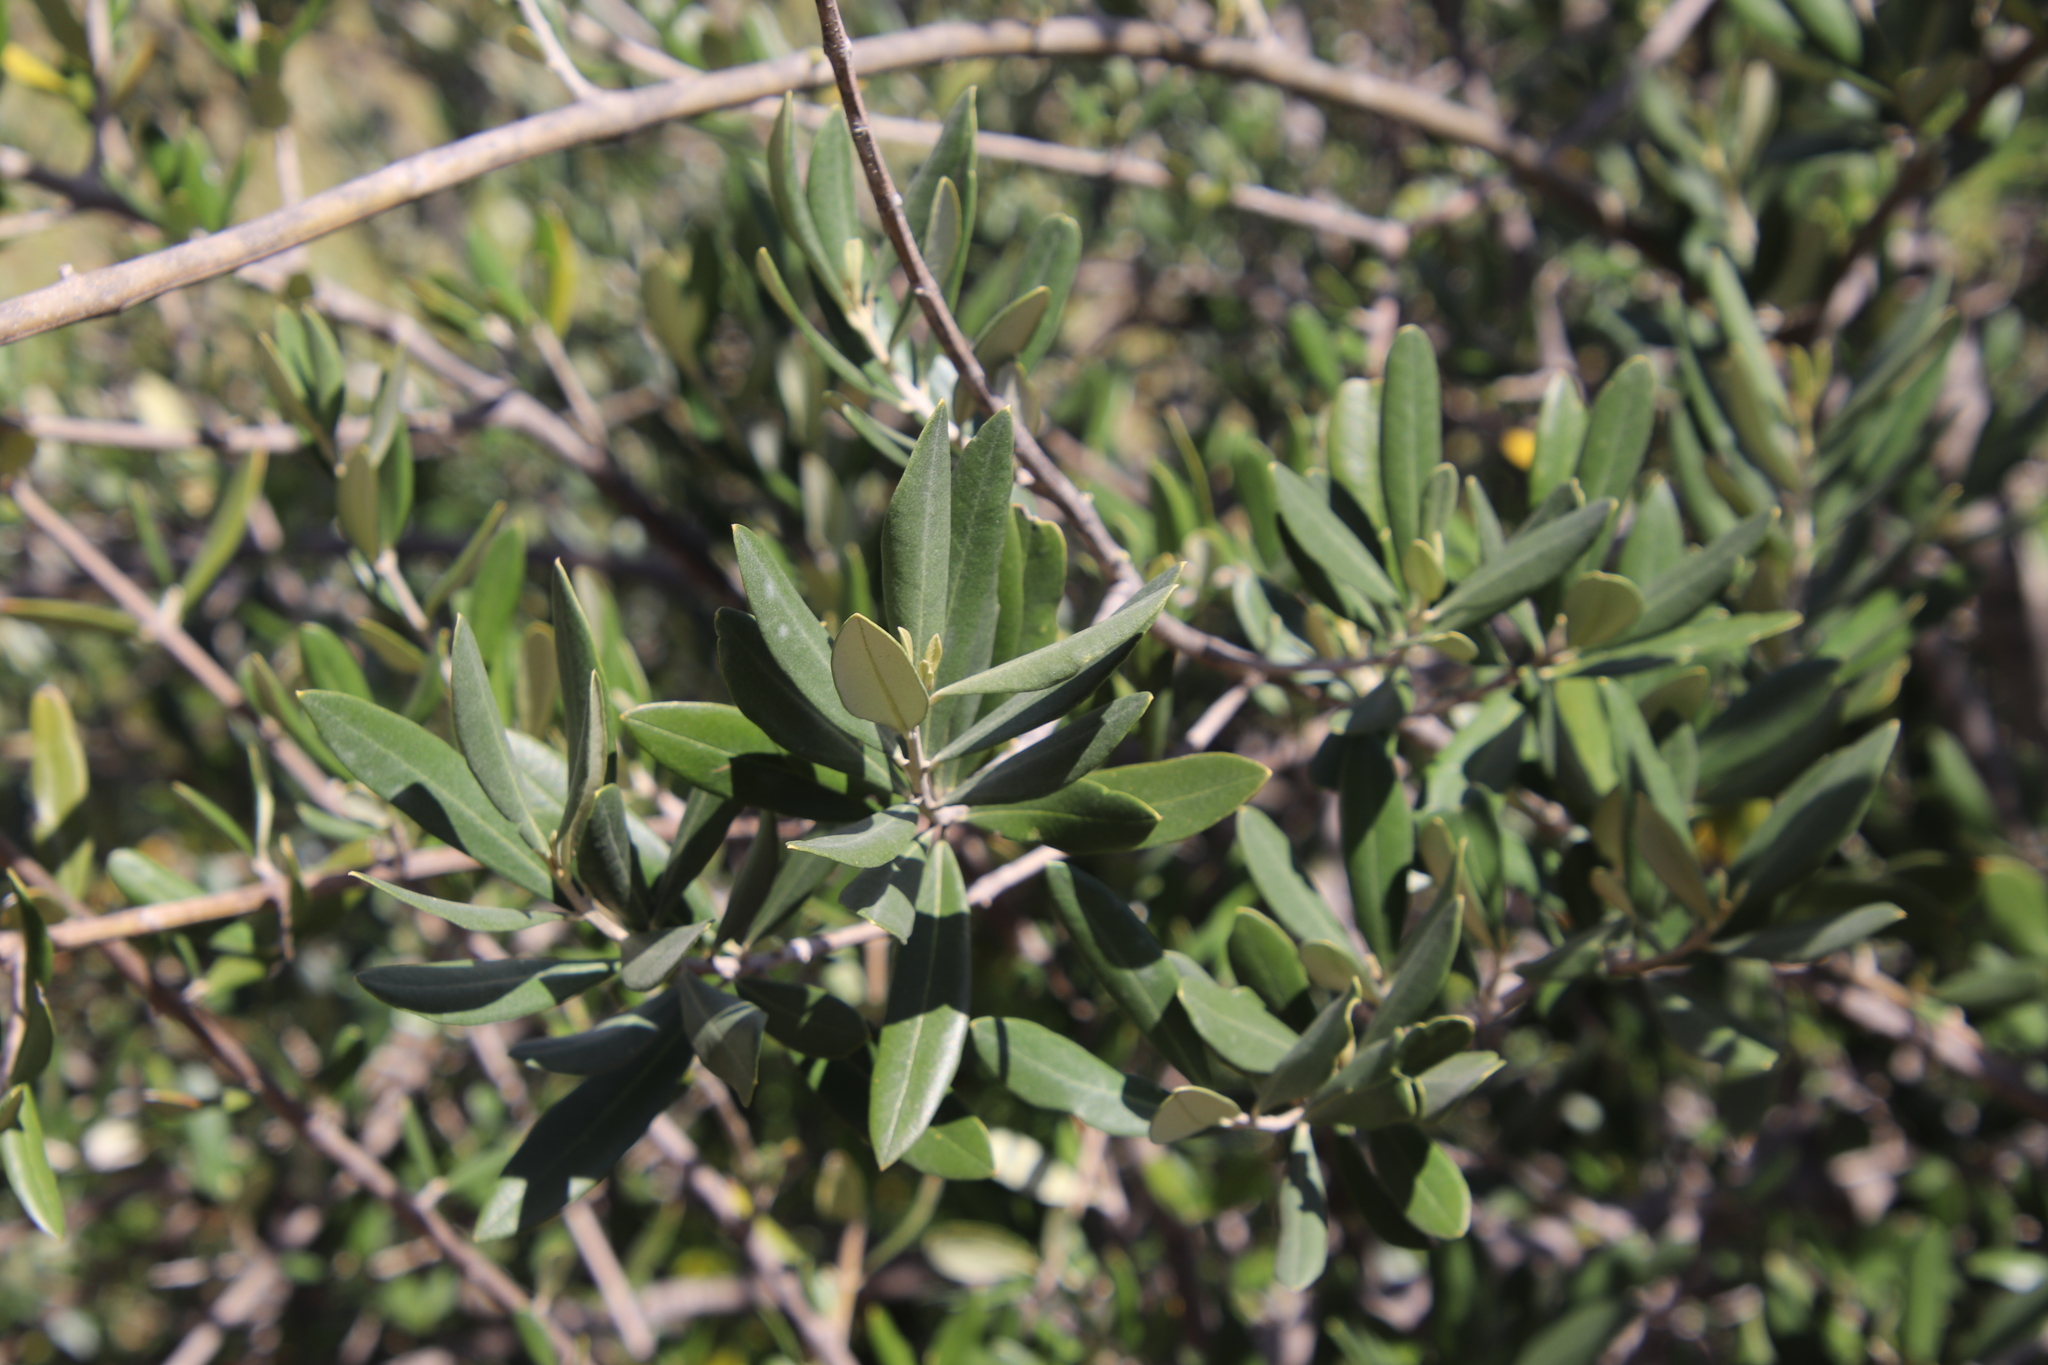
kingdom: Plantae
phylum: Tracheophyta
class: Magnoliopsida
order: Lamiales
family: Oleaceae
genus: Olea
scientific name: Olea europaea
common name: Olive
